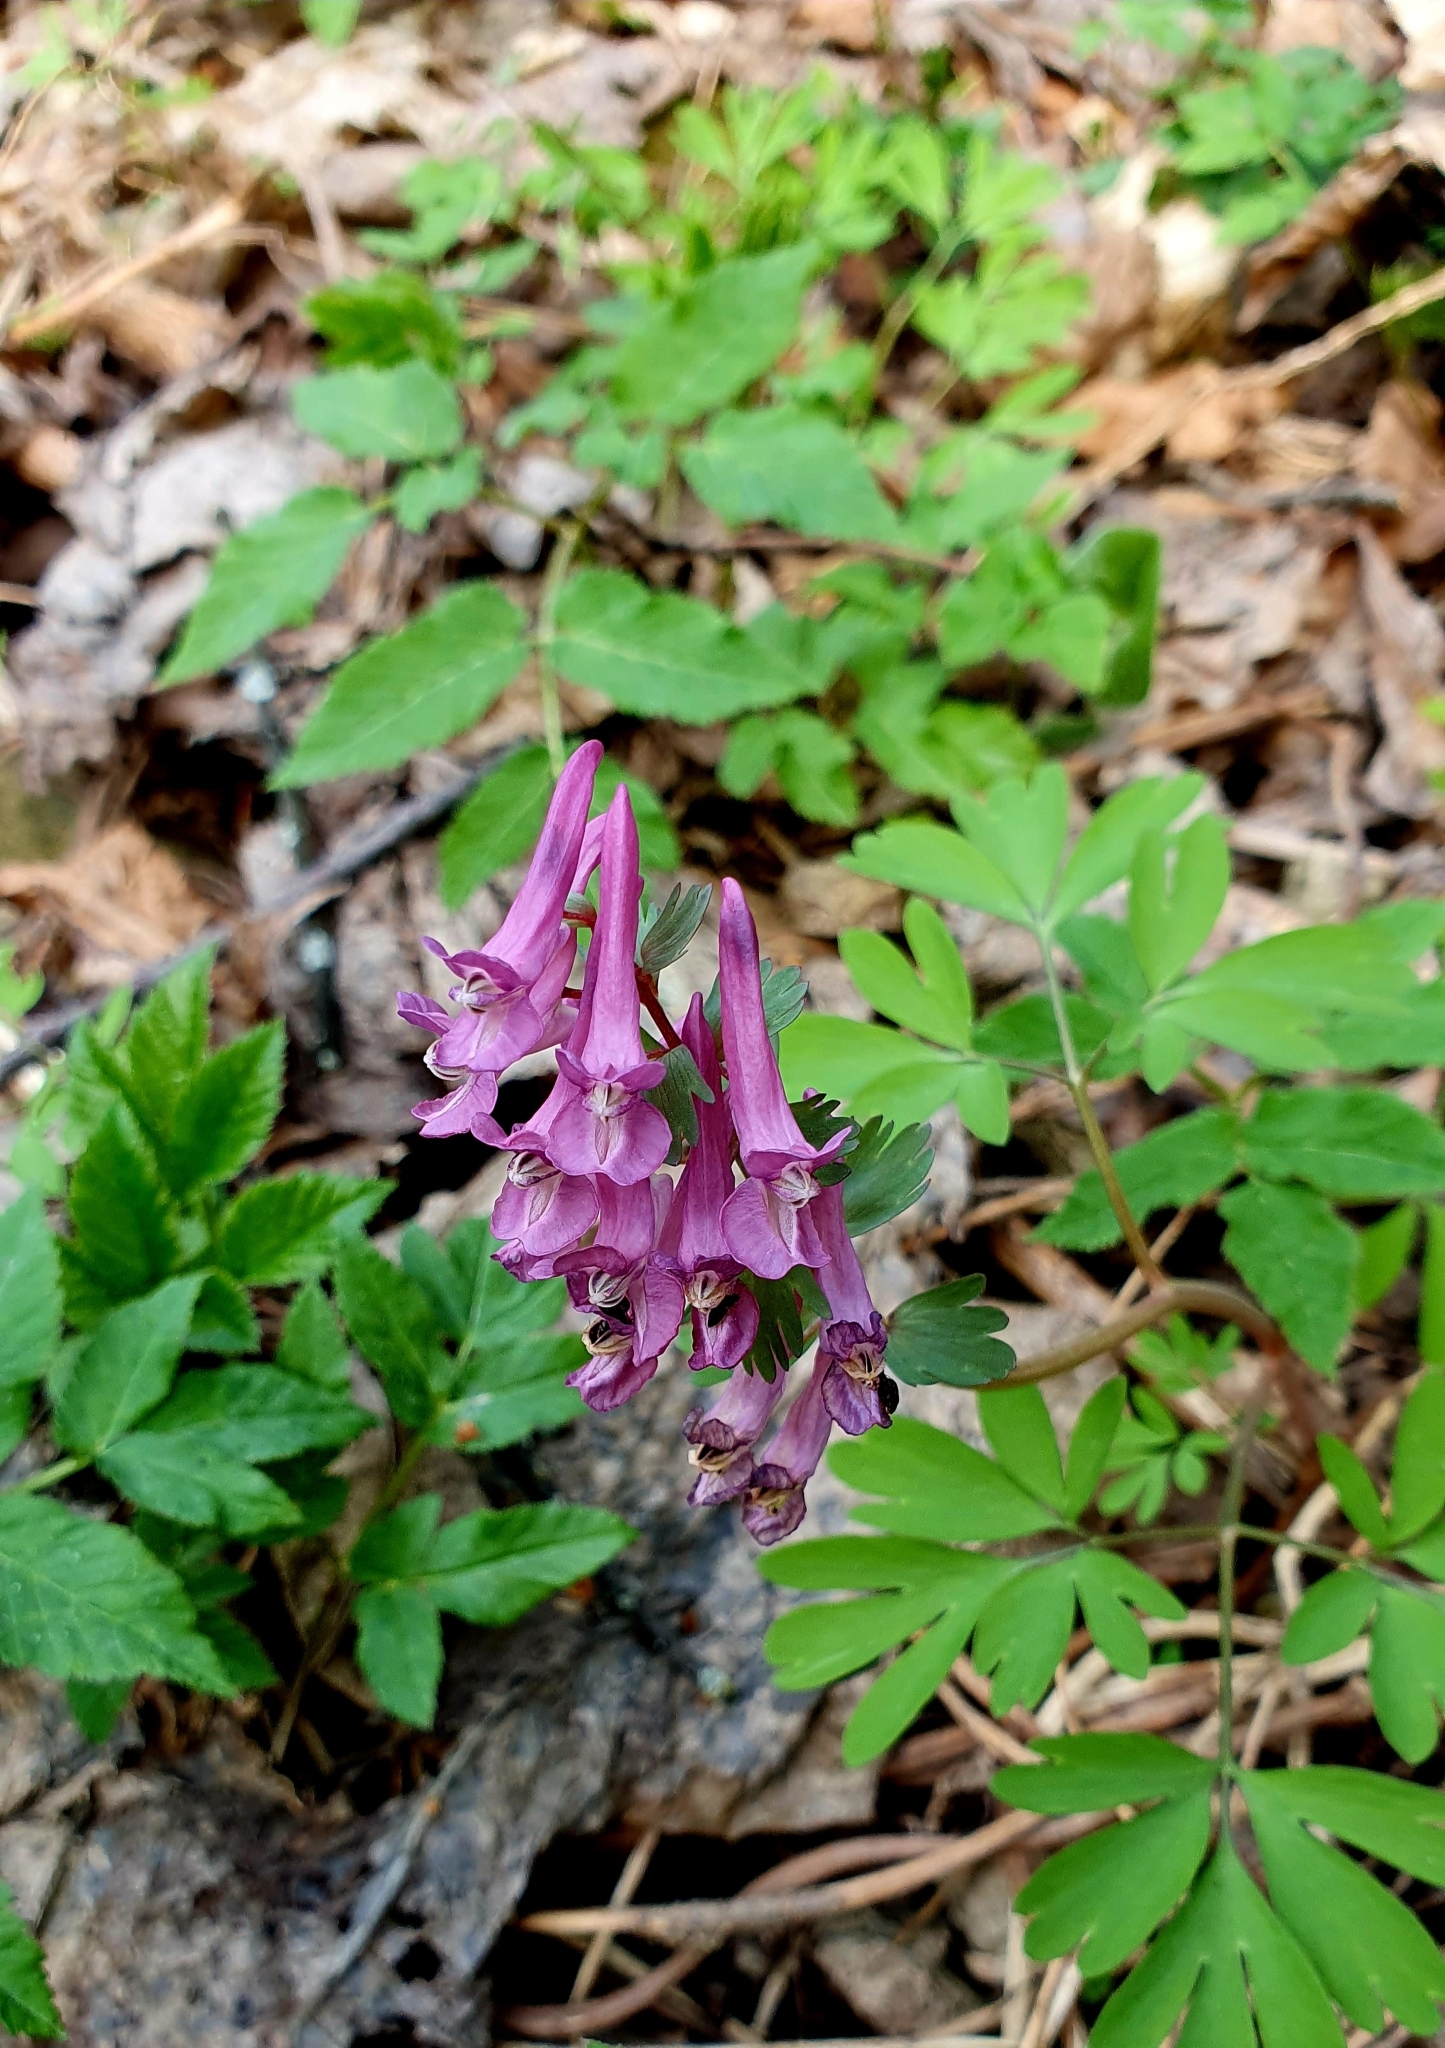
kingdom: Plantae
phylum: Tracheophyta
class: Magnoliopsida
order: Ranunculales
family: Papaveraceae
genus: Corydalis
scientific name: Corydalis solida
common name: Bird-in-a-bush
